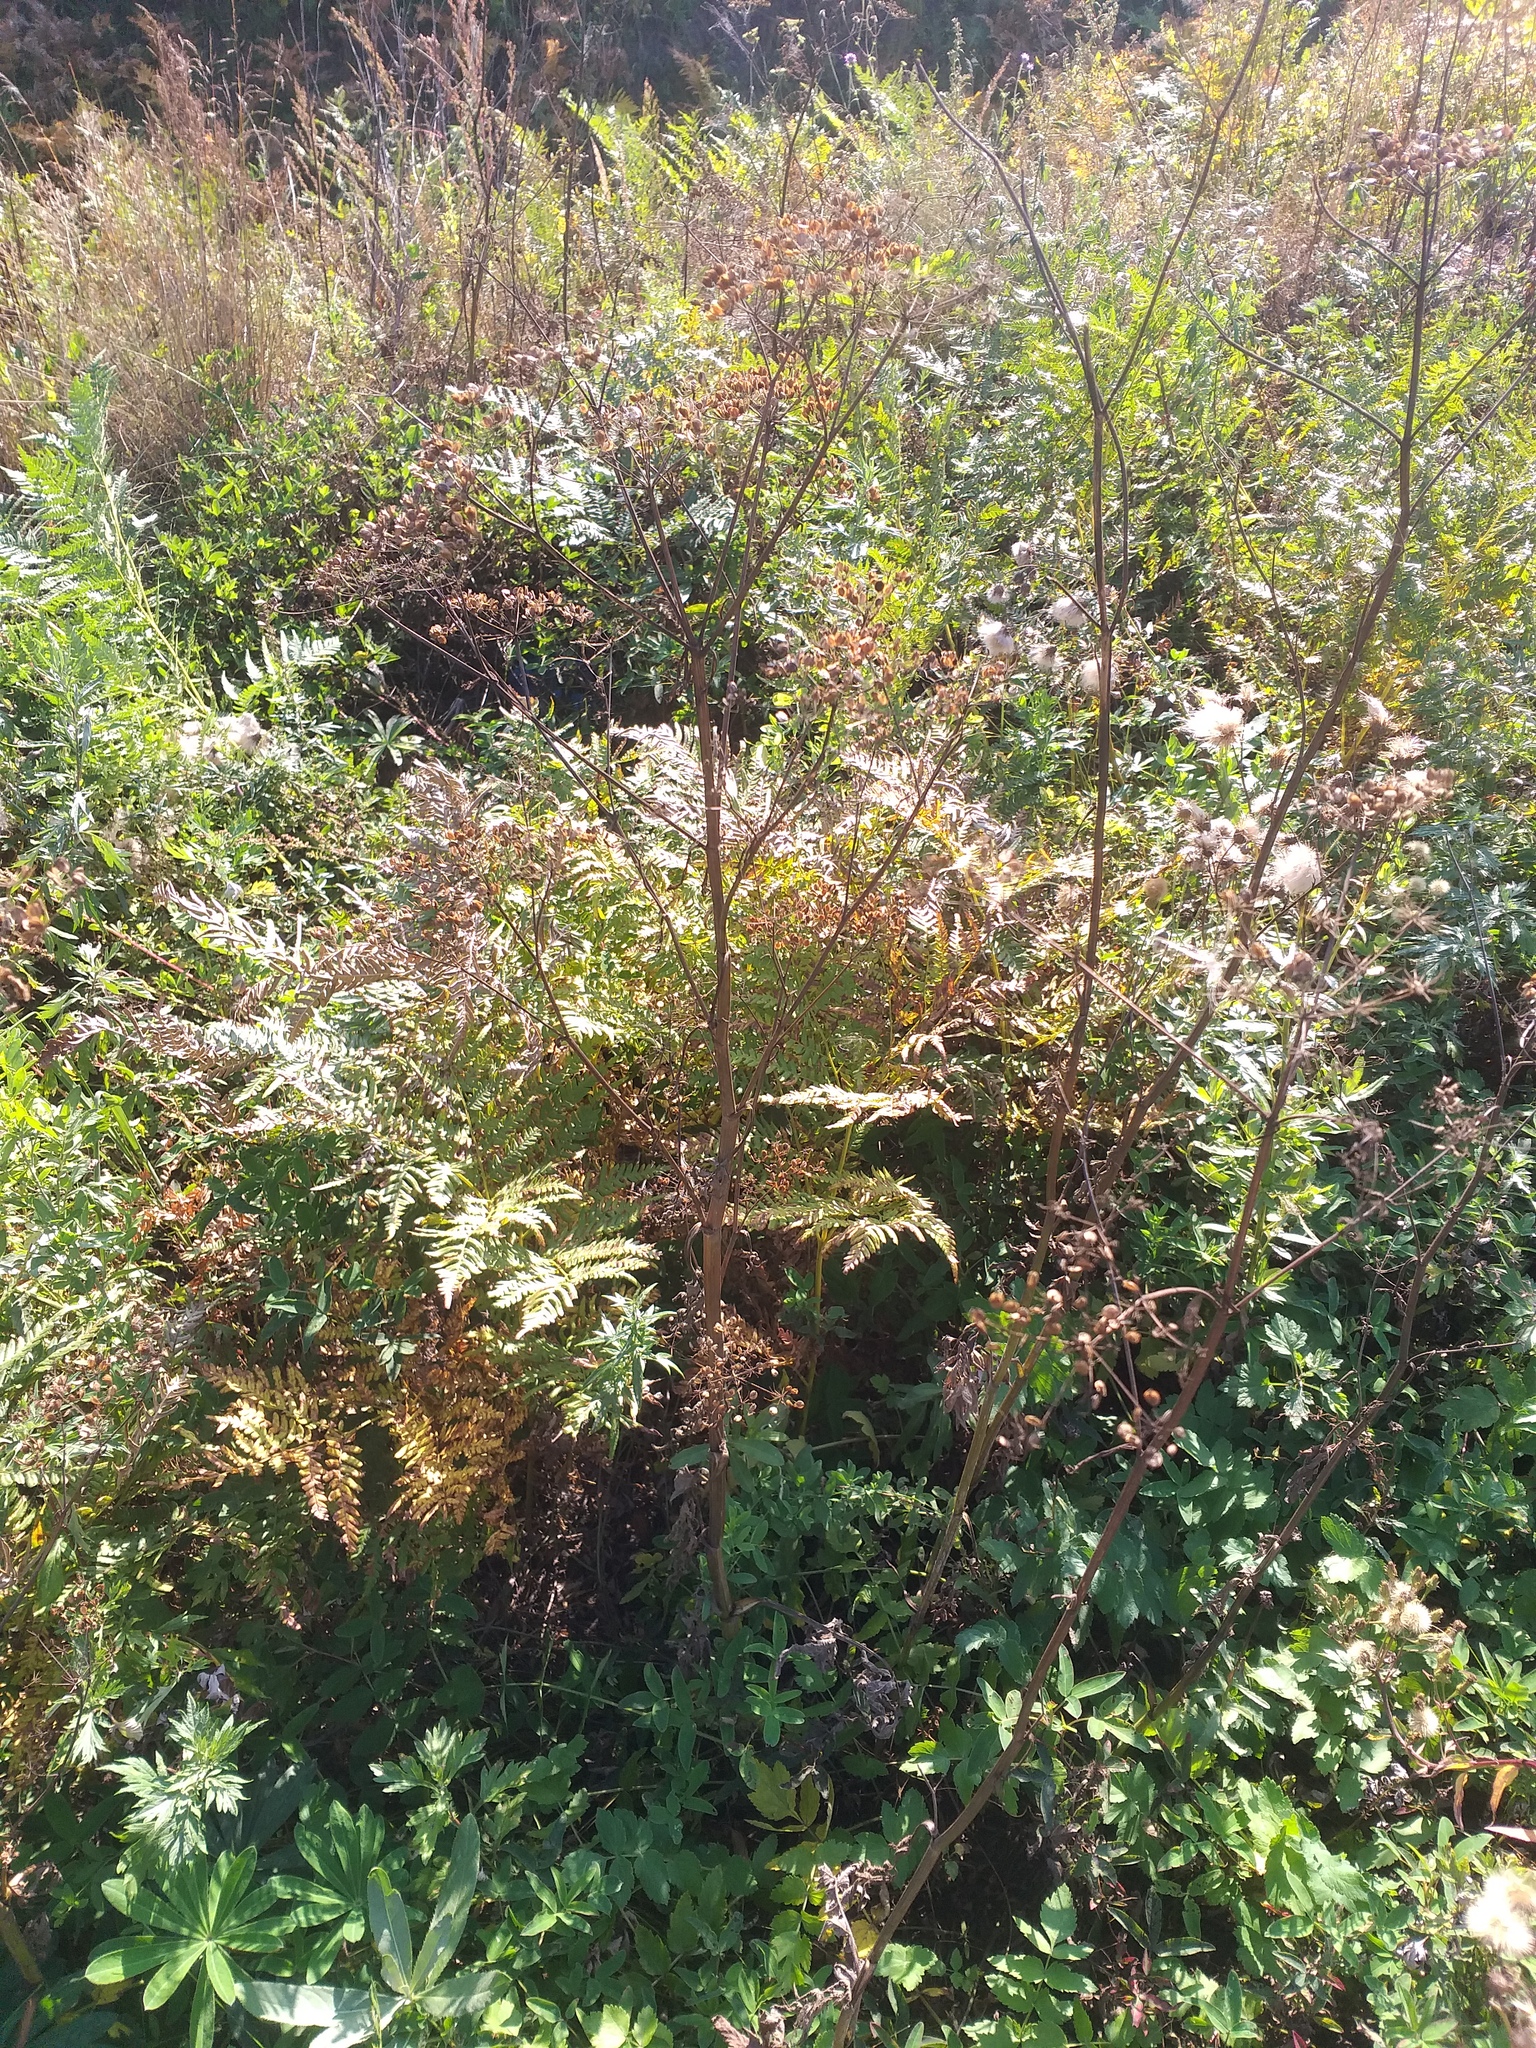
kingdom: Plantae
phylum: Tracheophyta
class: Magnoliopsida
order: Apiales
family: Apiaceae
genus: Pastinaca
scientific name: Pastinaca sativa
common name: Wild parsnip
